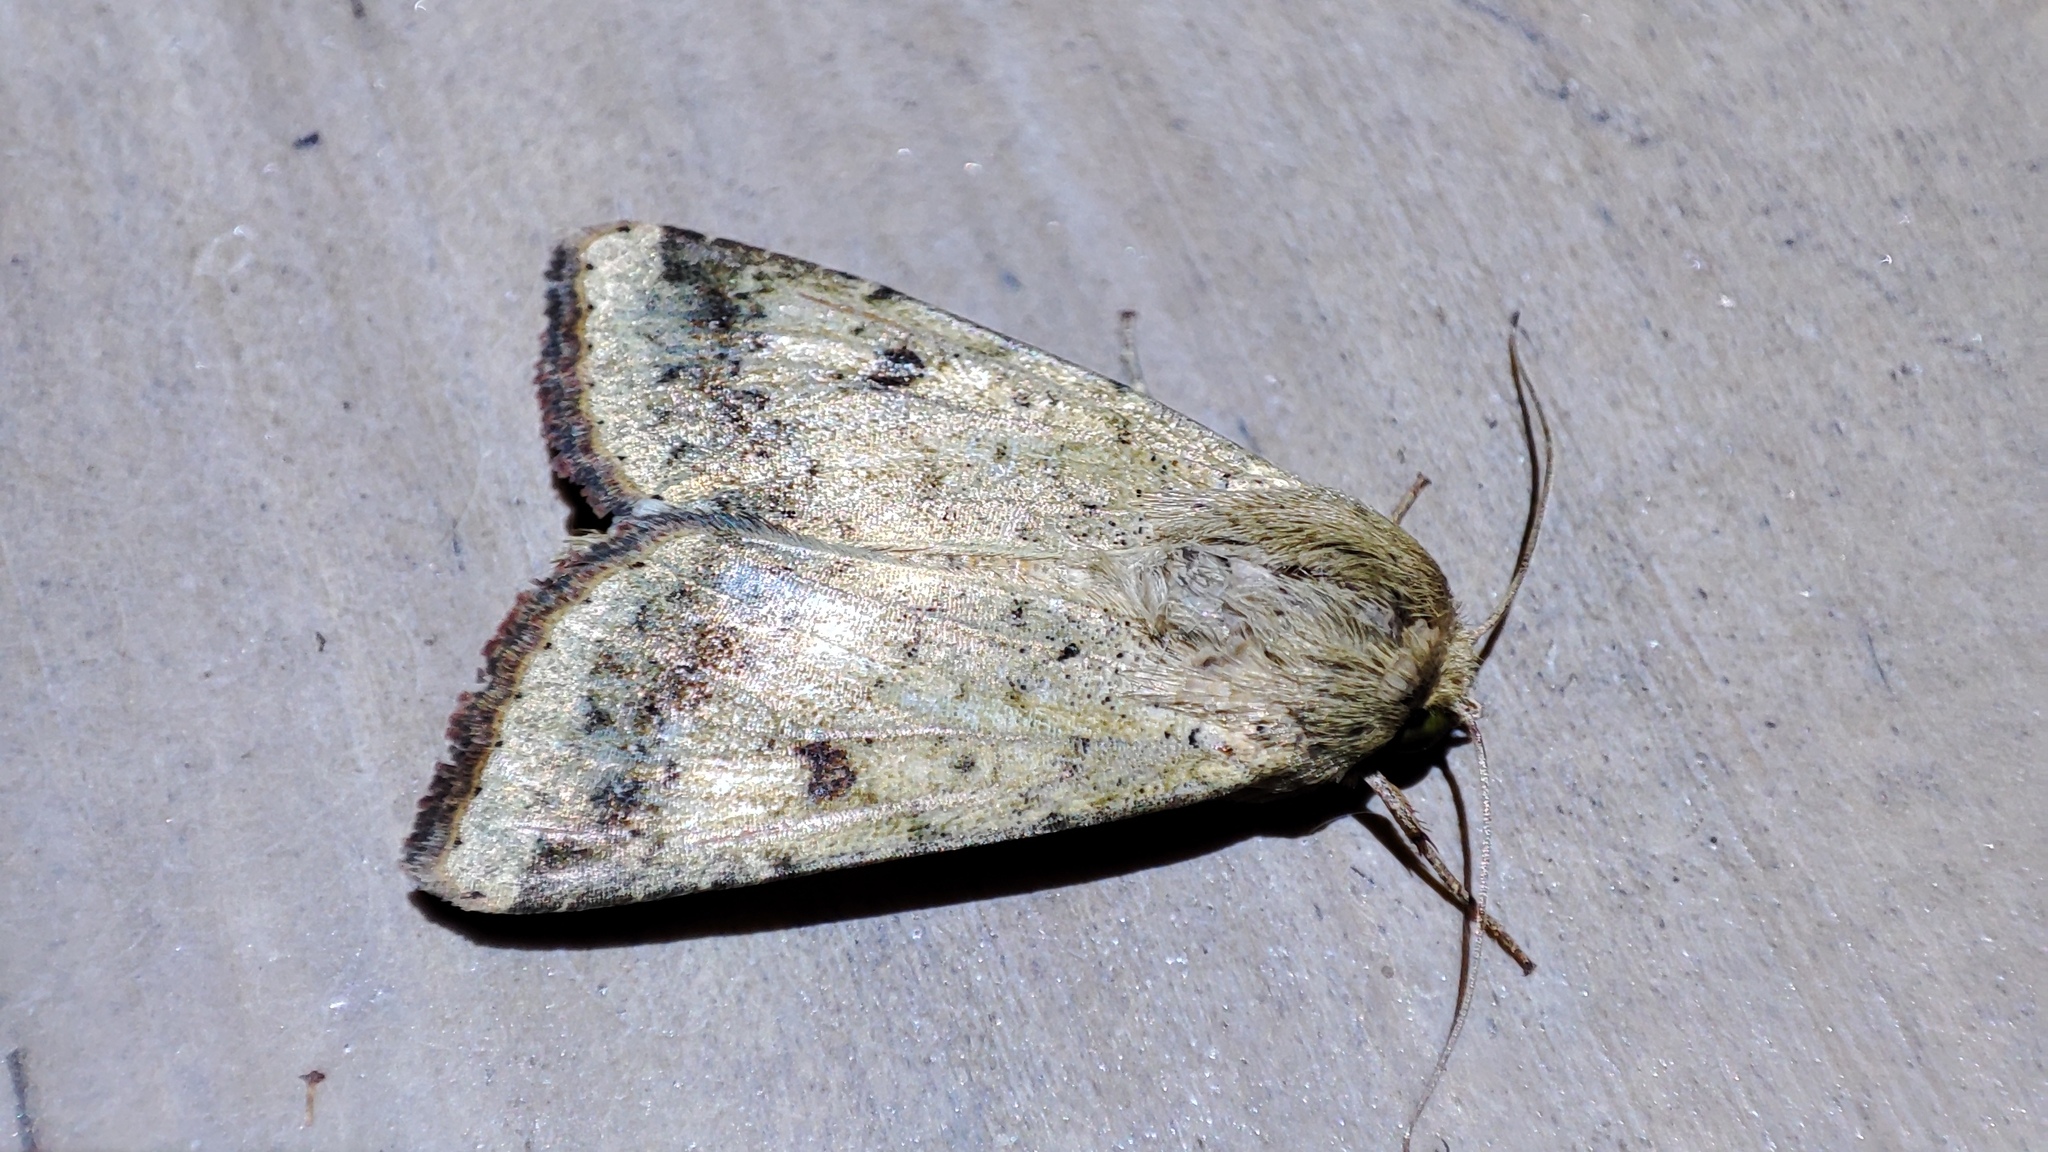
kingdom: Animalia
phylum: Arthropoda
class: Insecta
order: Lepidoptera
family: Noctuidae
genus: Helicoverpa
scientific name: Helicoverpa armigera
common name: Cotton bollworm
